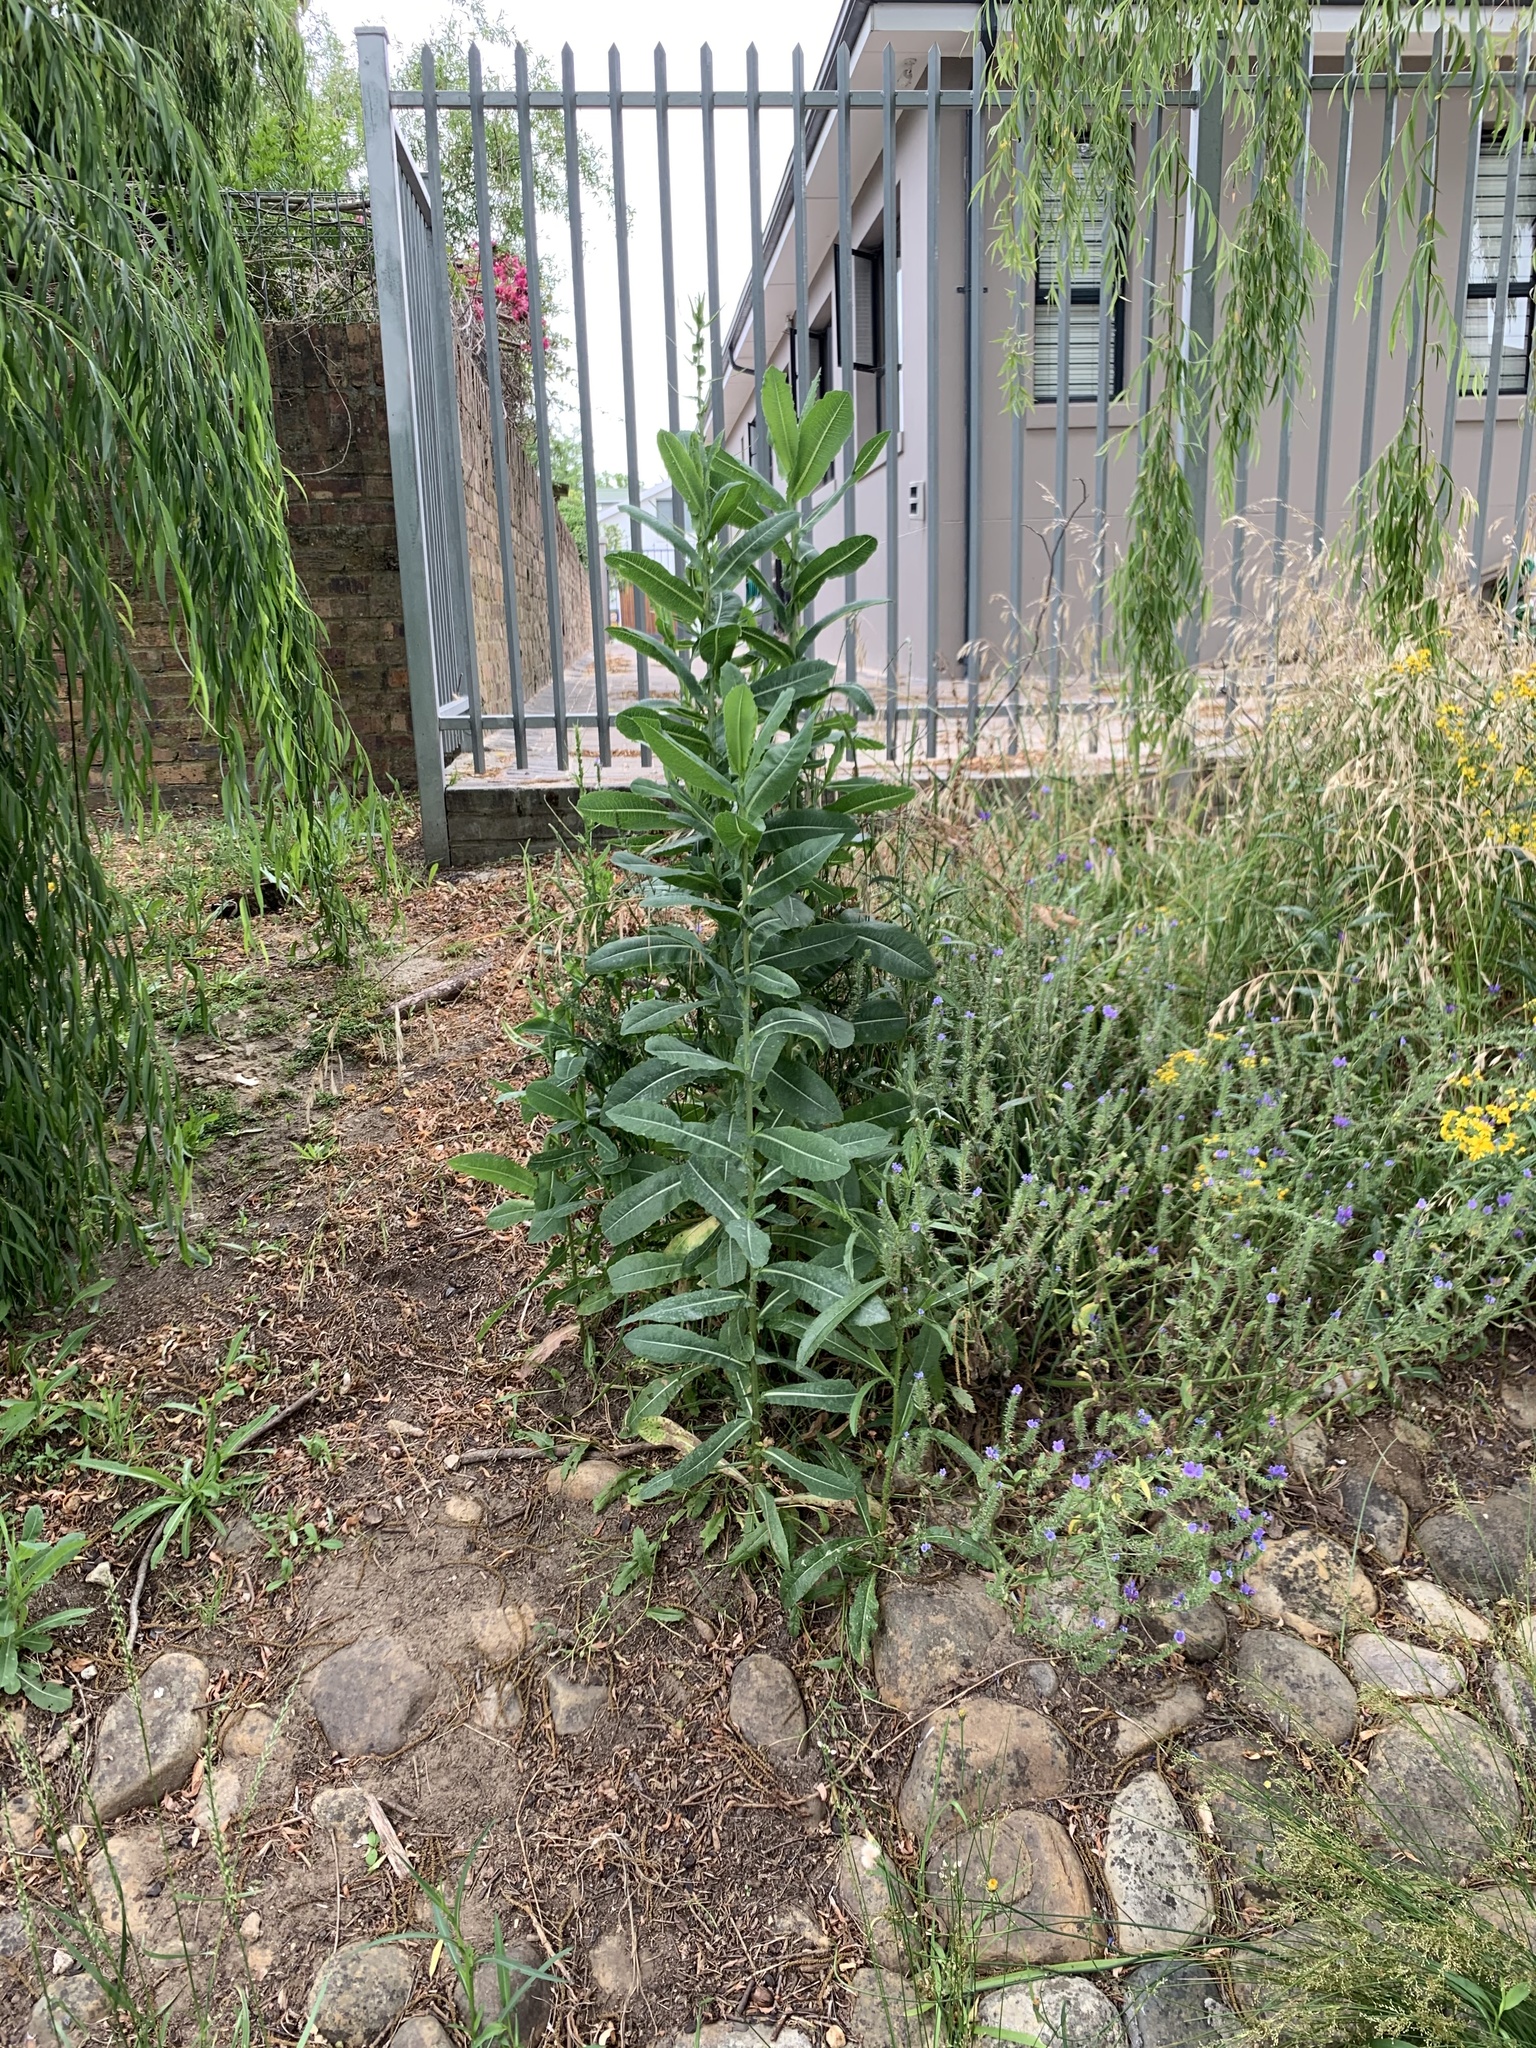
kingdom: Plantae
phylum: Tracheophyta
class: Magnoliopsida
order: Asterales
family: Asteraceae
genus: Lactuca
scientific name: Lactuca serriola
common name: Prickly lettuce
